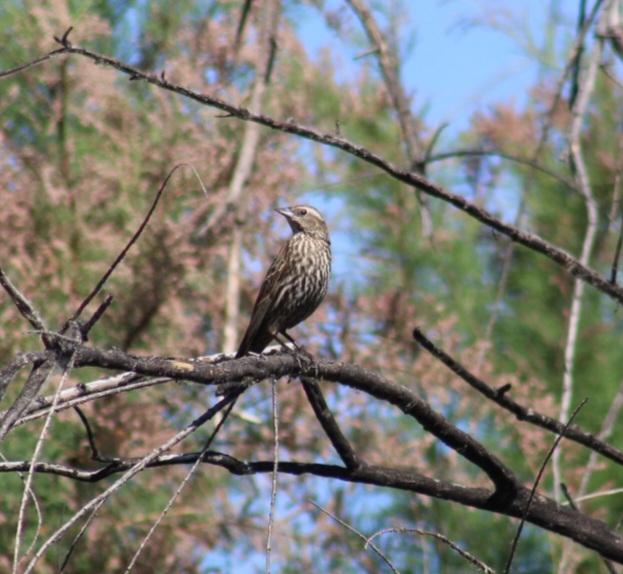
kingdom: Animalia
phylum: Chordata
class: Aves
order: Passeriformes
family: Icteridae
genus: Agelaius
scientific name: Agelaius phoeniceus
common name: Red-winged blackbird
